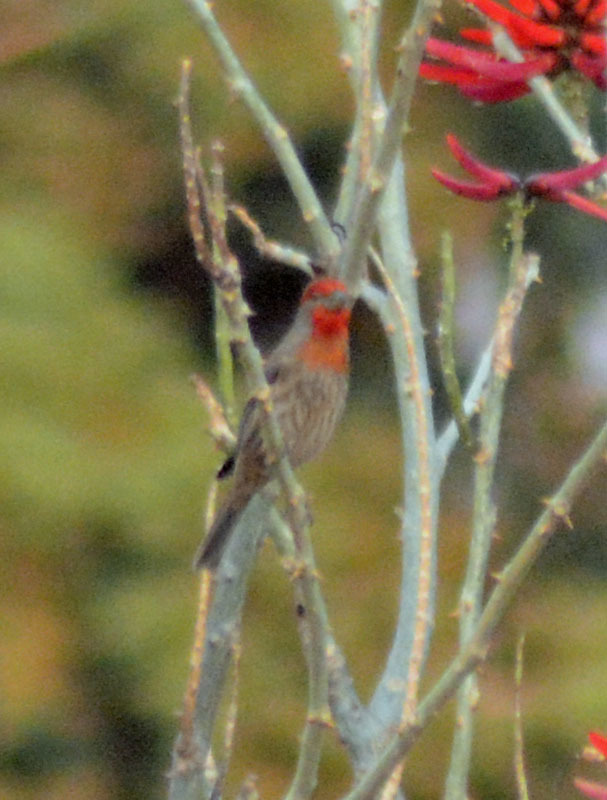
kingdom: Animalia
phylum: Chordata
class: Aves
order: Passeriformes
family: Fringillidae
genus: Haemorhous
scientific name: Haemorhous mexicanus
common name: House finch
